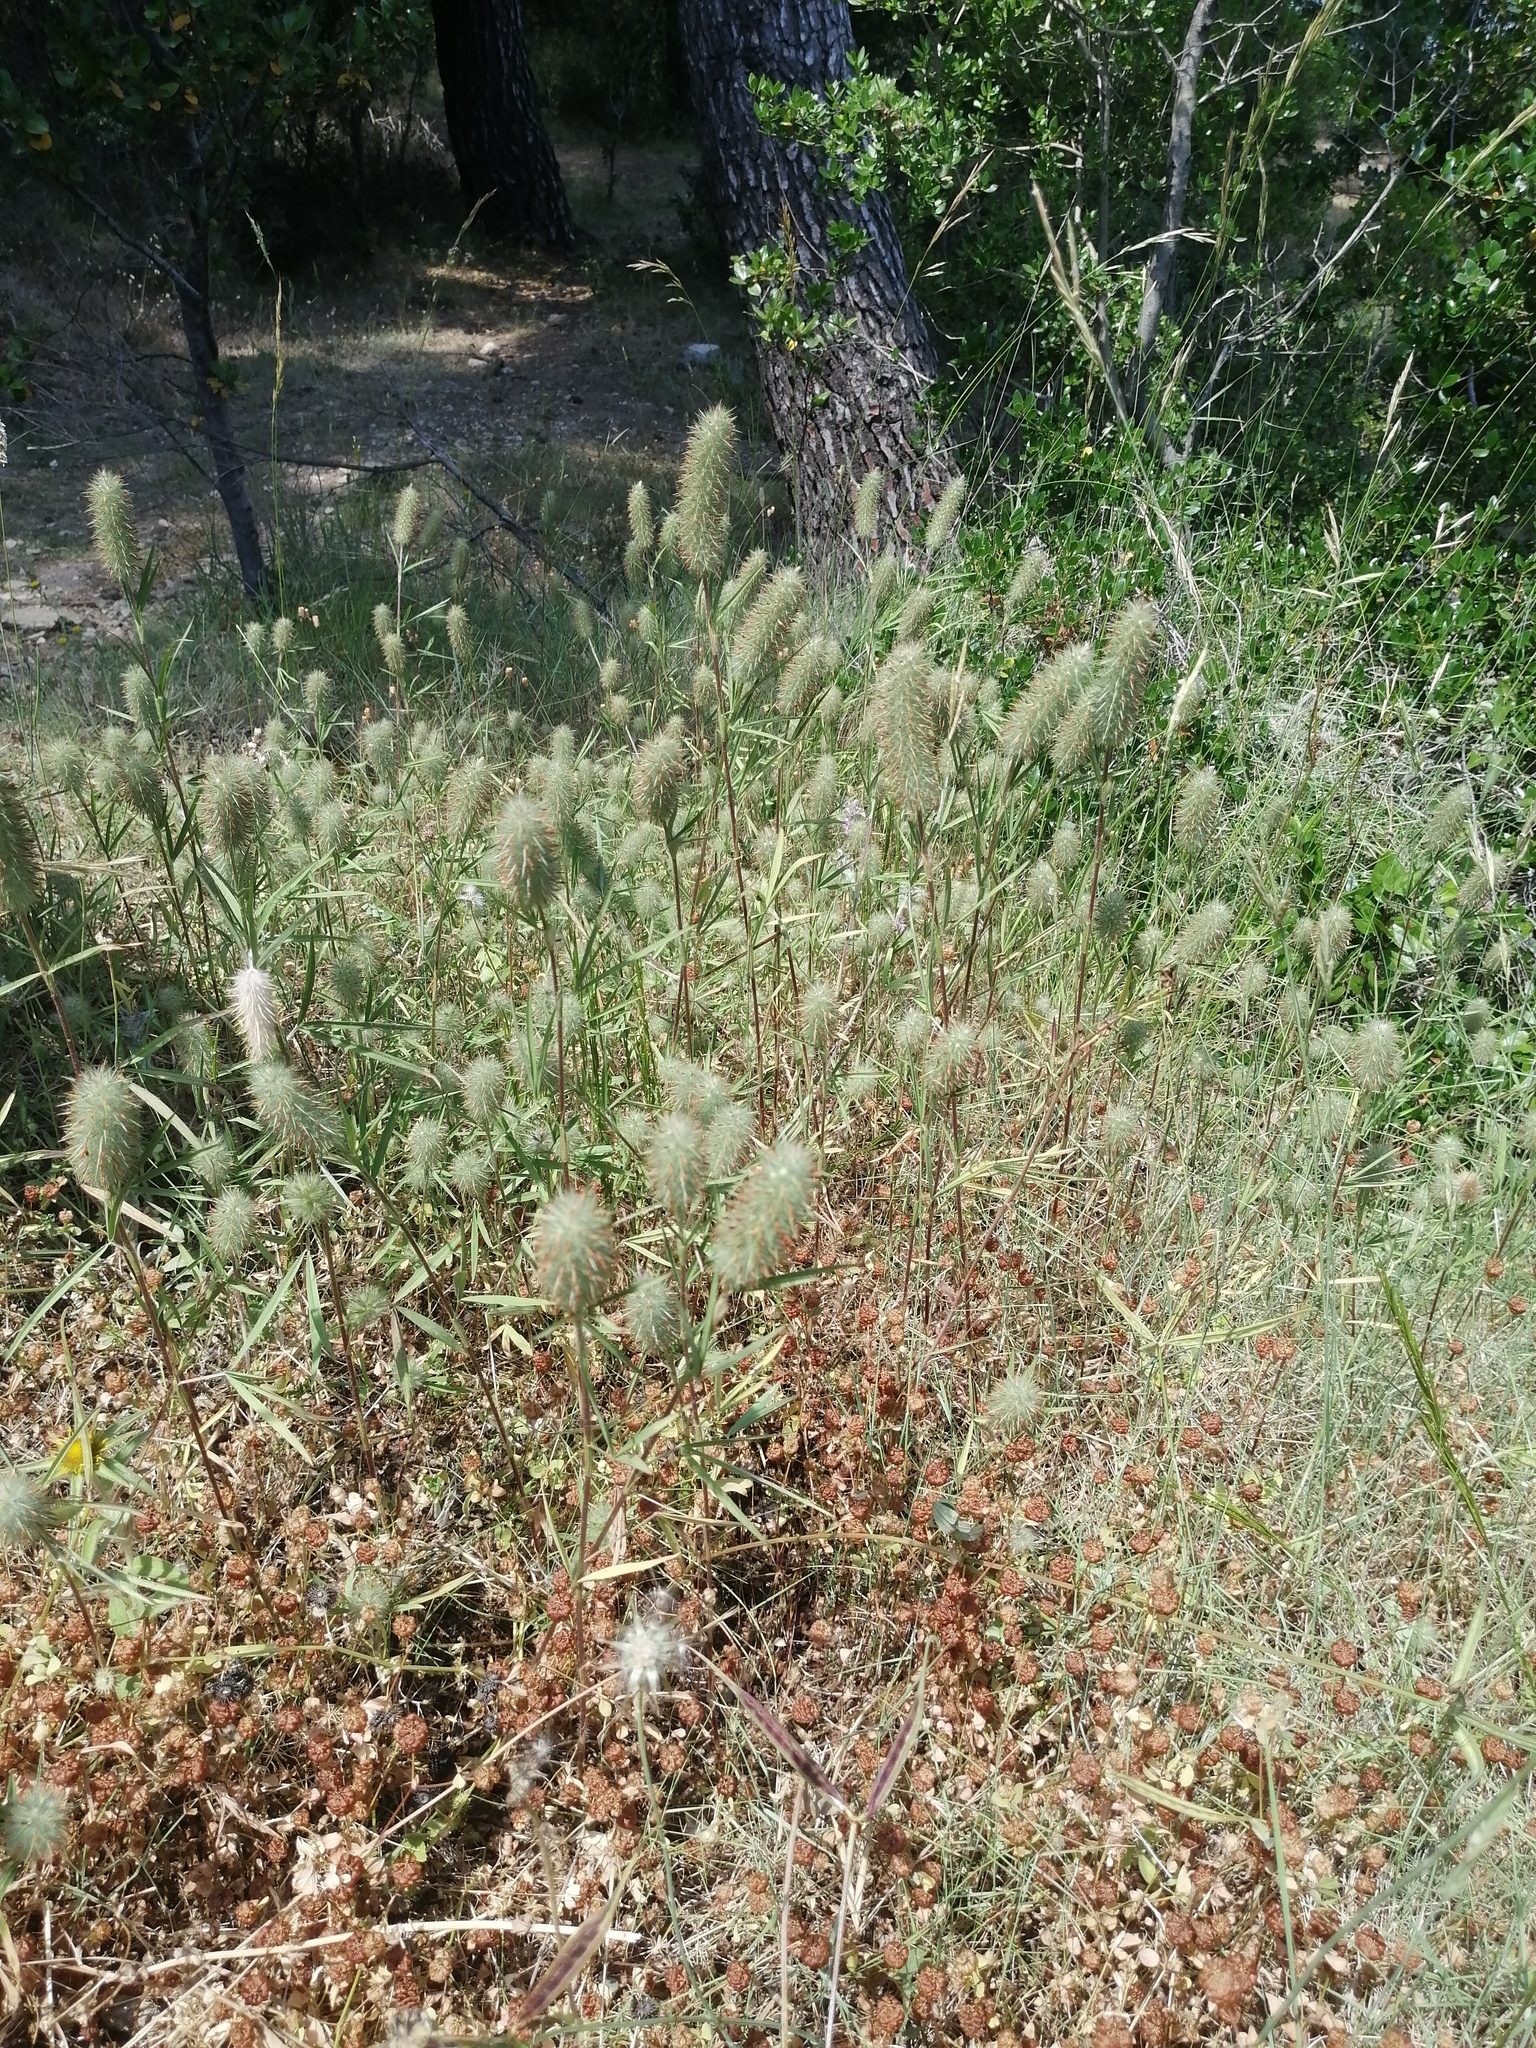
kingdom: Plantae
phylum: Tracheophyta
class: Magnoliopsida
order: Fabales
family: Fabaceae
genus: Trifolium
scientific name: Trifolium angustifolium
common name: Narrow clover
